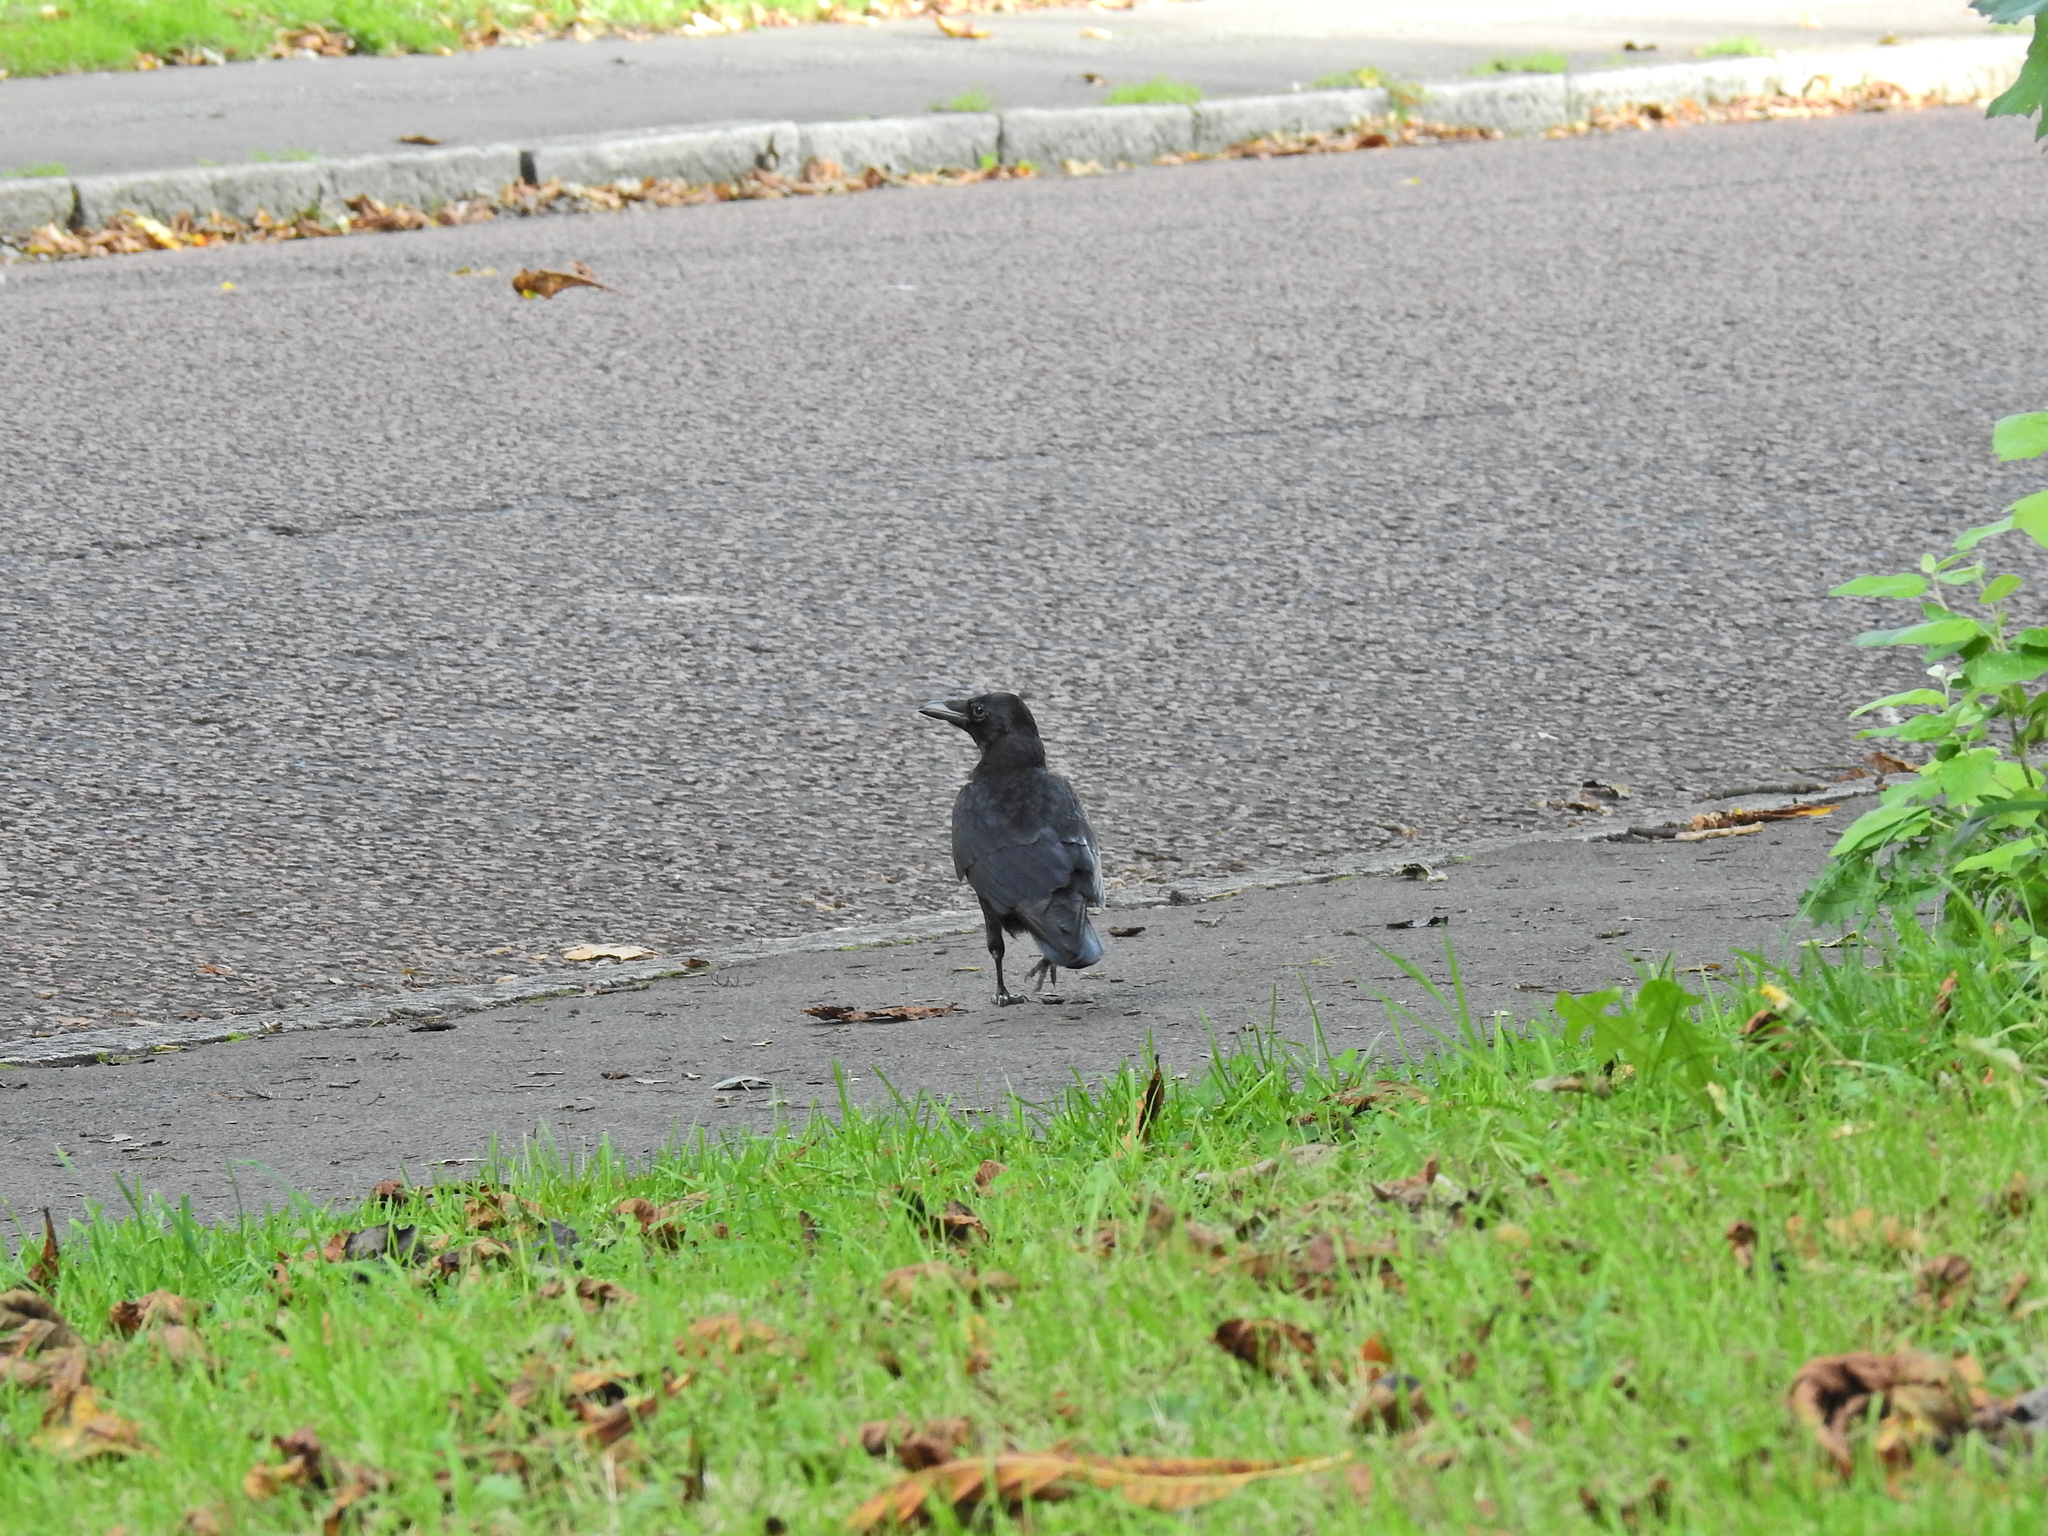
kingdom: Animalia
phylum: Chordata
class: Aves
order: Passeriformes
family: Corvidae
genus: Corvus
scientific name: Corvus corone
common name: Carrion crow
